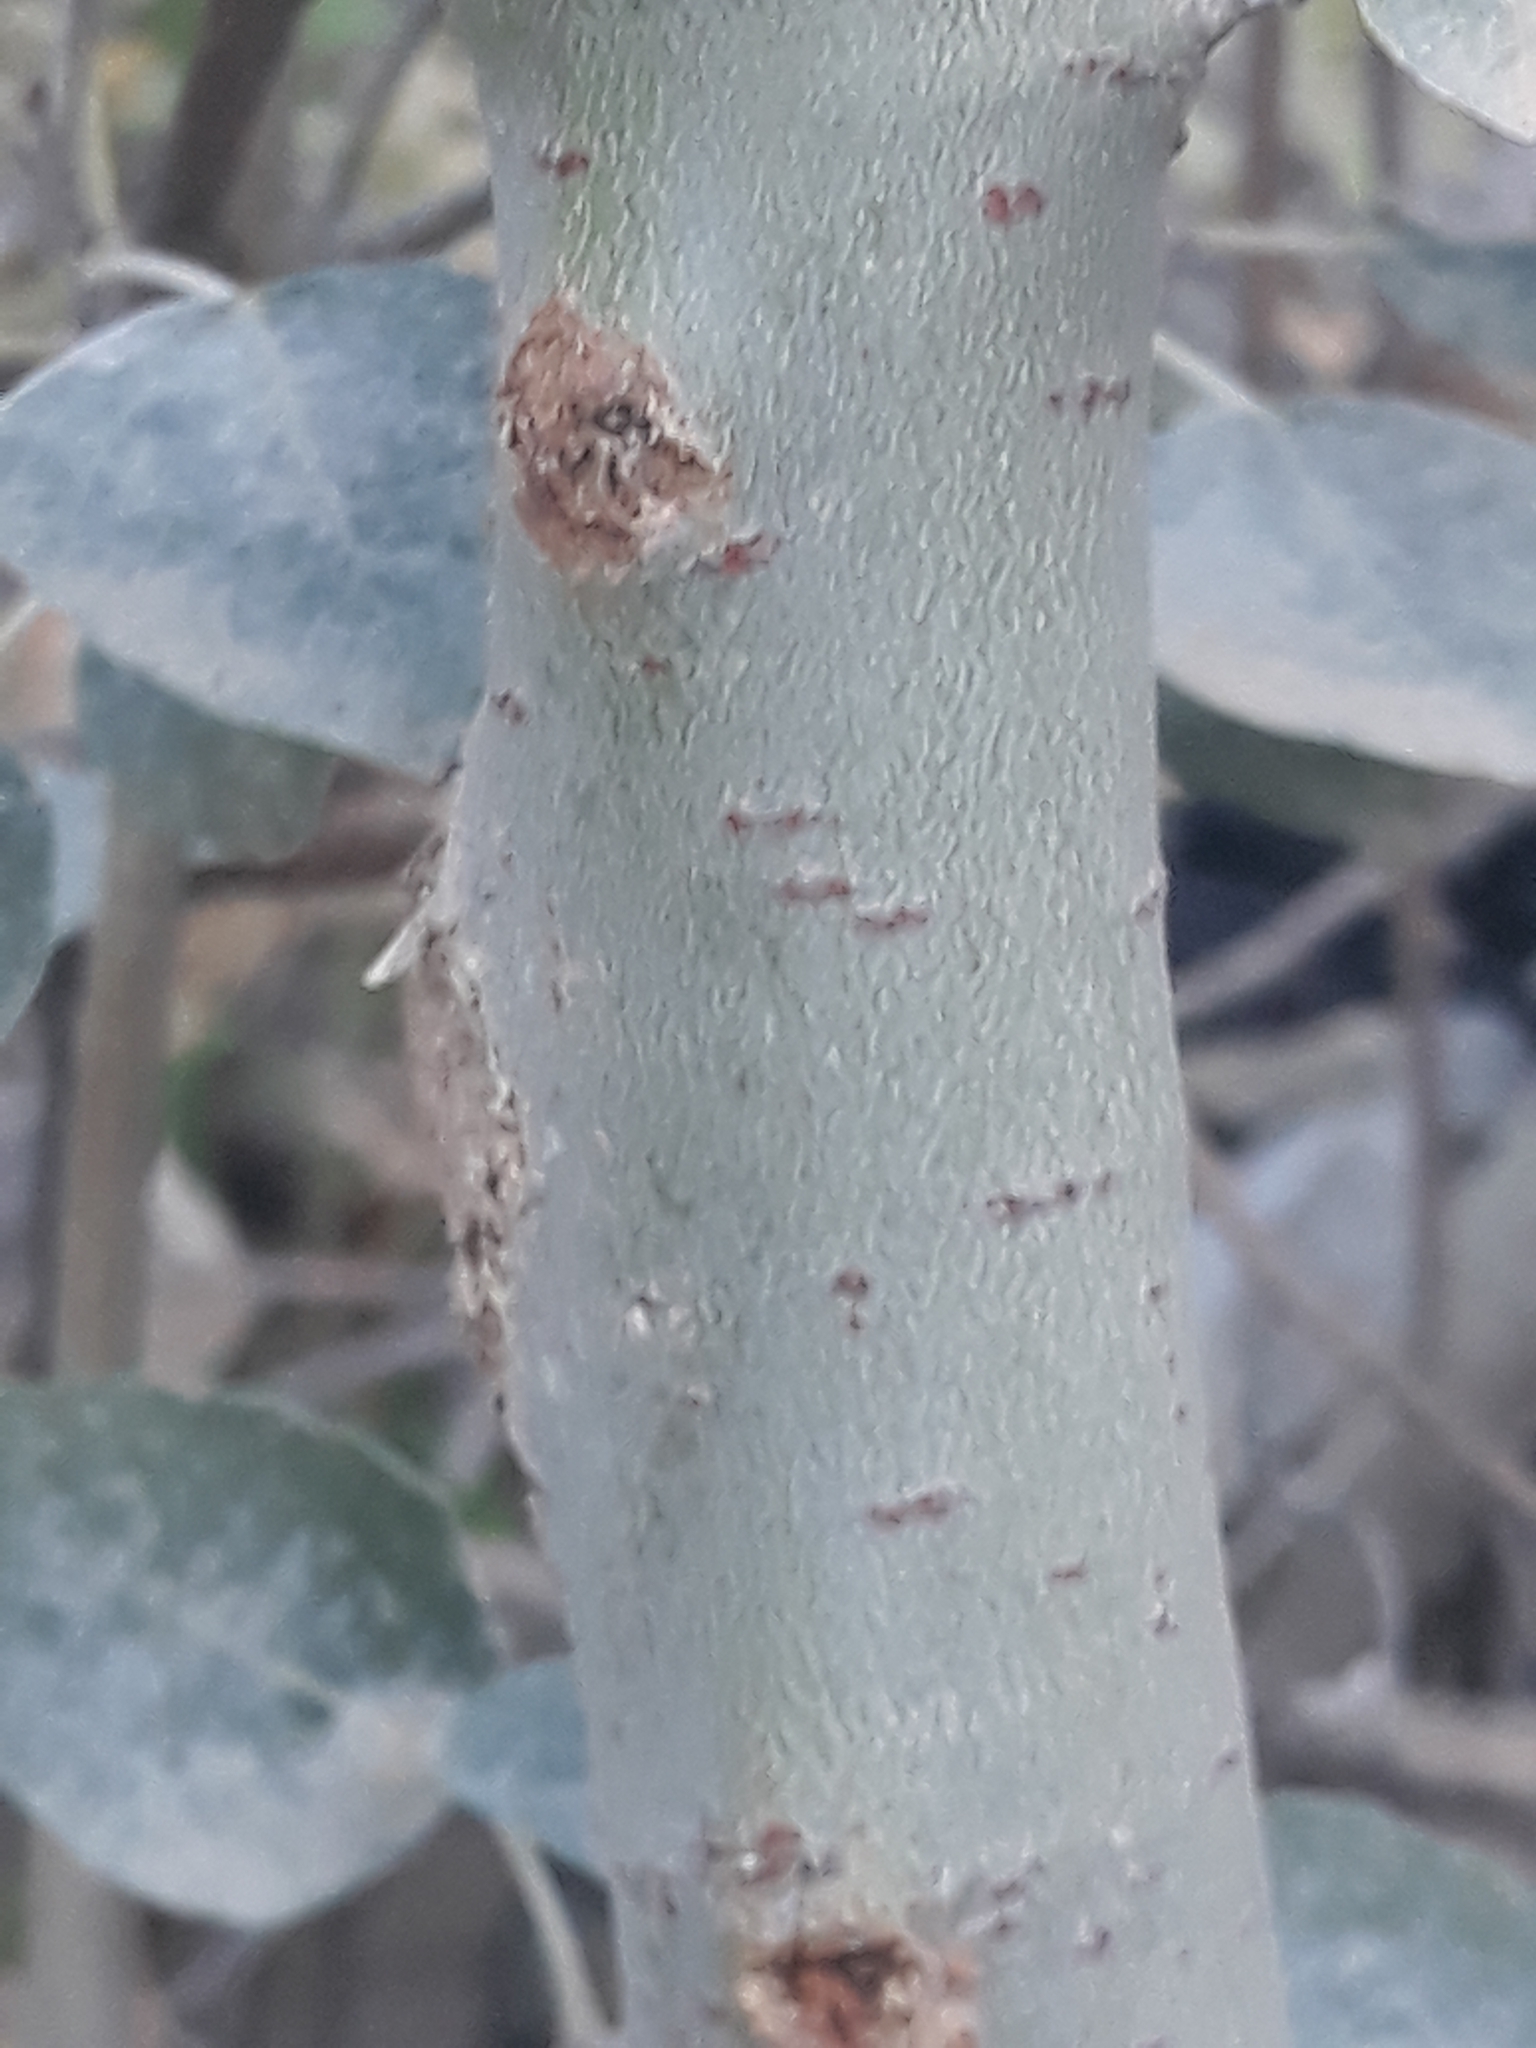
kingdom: Plantae
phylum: Tracheophyta
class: Magnoliopsida
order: Malpighiales
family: Salicaceae
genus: Populus
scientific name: Populus alba
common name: White poplar
